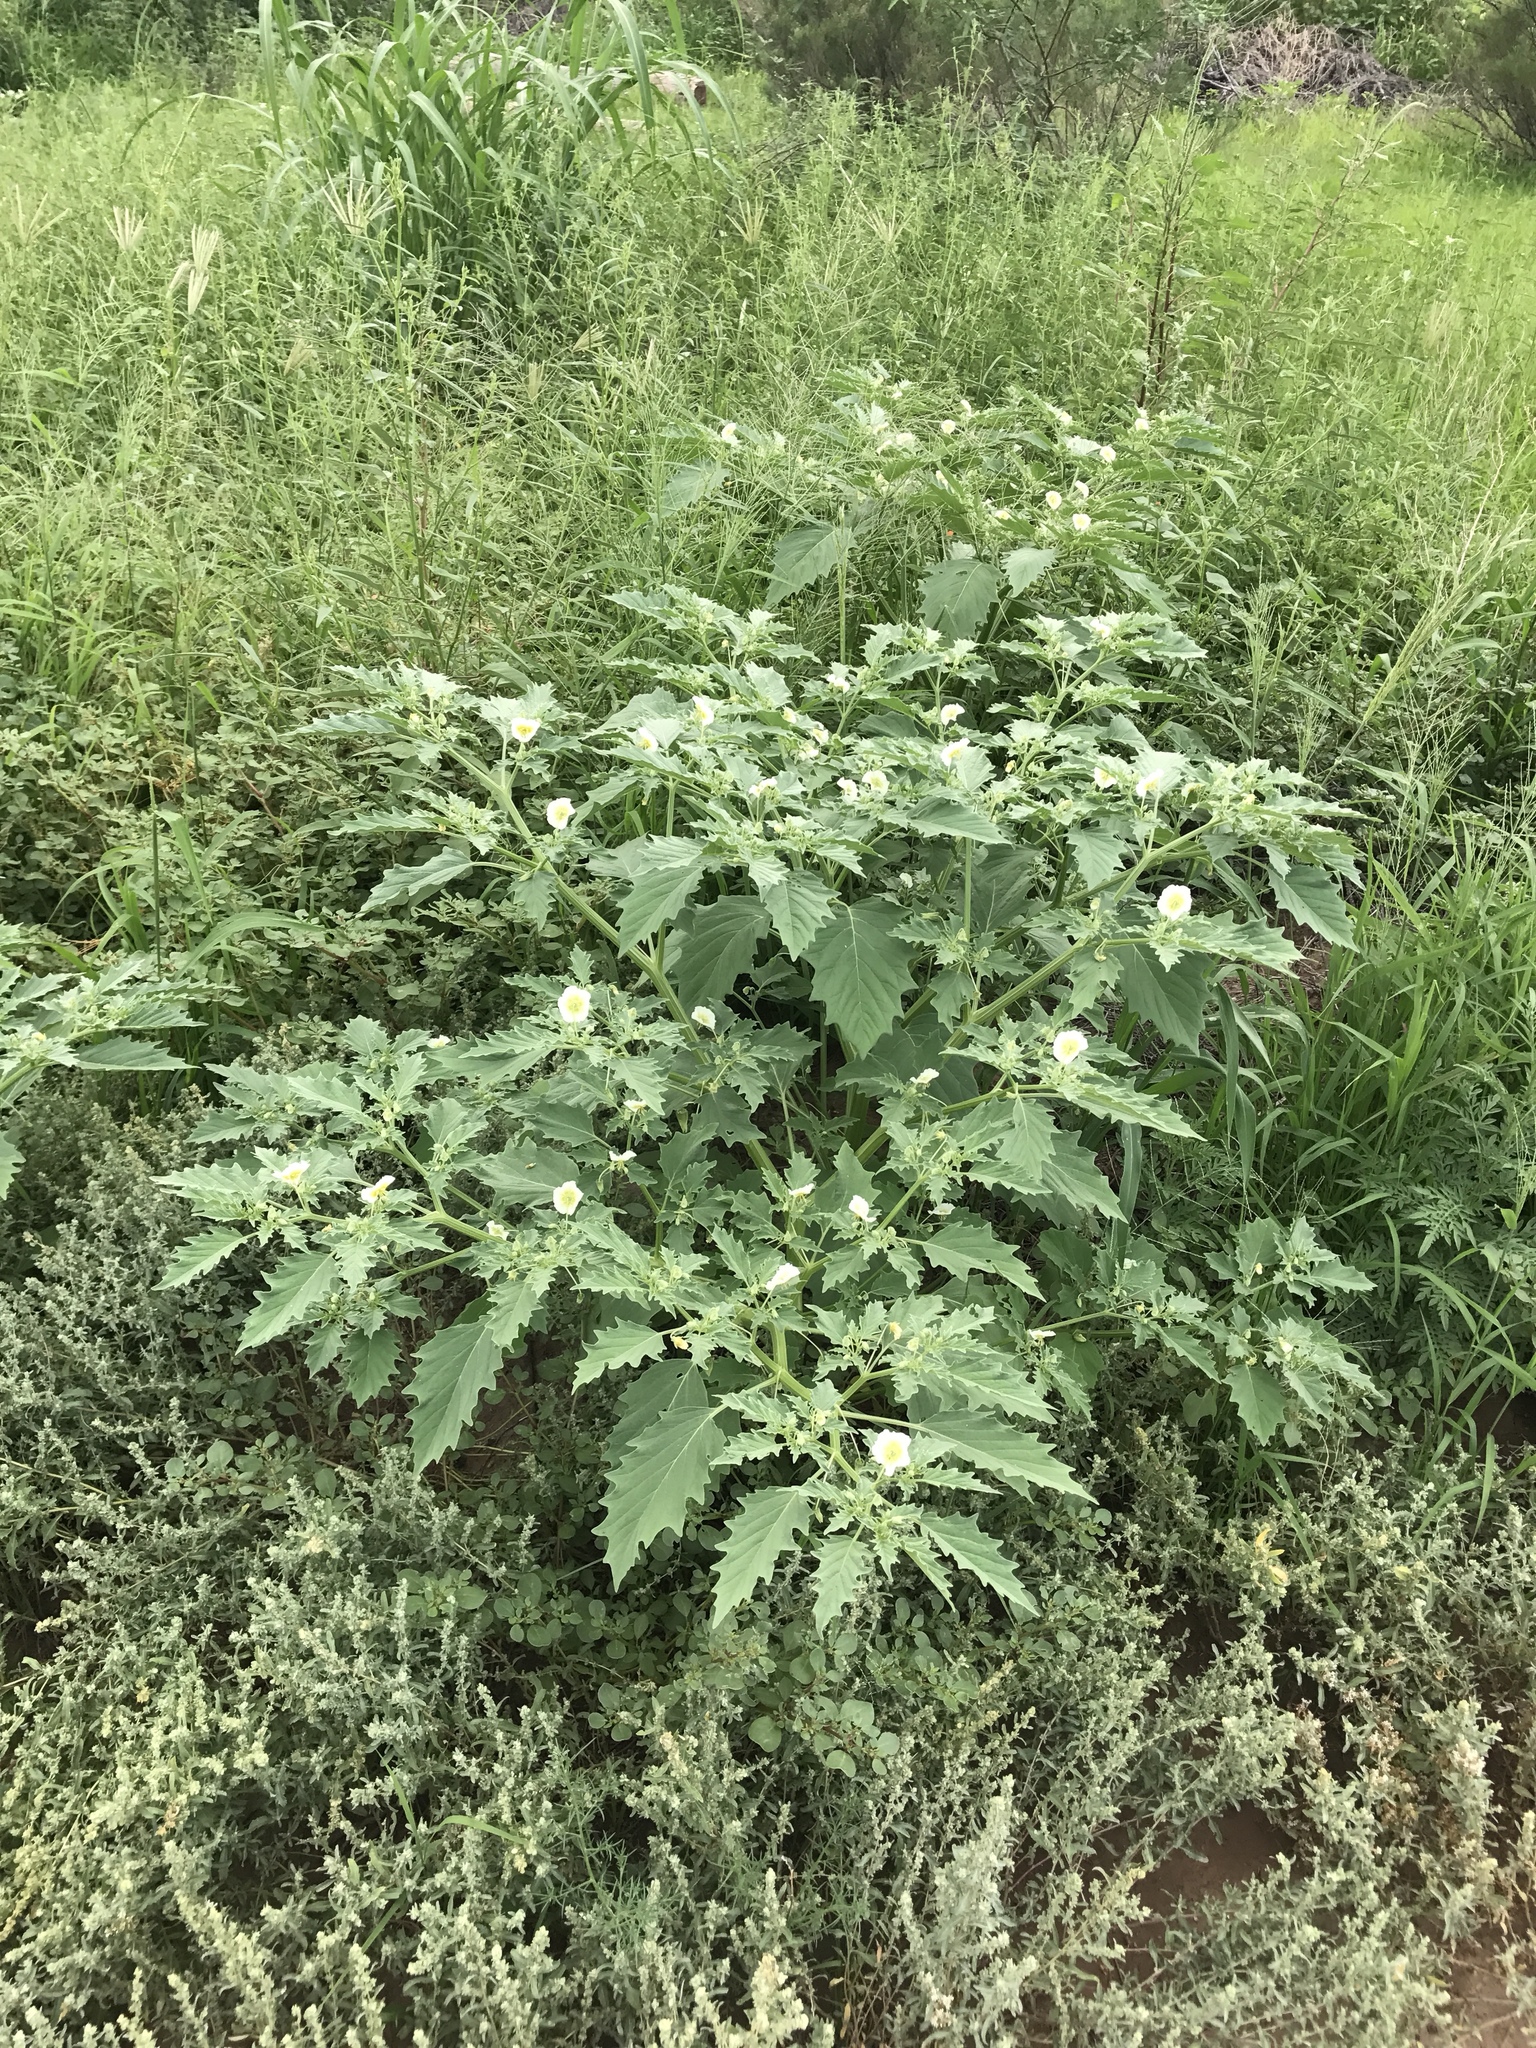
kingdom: Plantae
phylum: Tracheophyta
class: Magnoliopsida
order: Solanales
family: Solanaceae
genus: Physalis
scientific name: Physalis acutifolia
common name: Wright's ground-cherry
